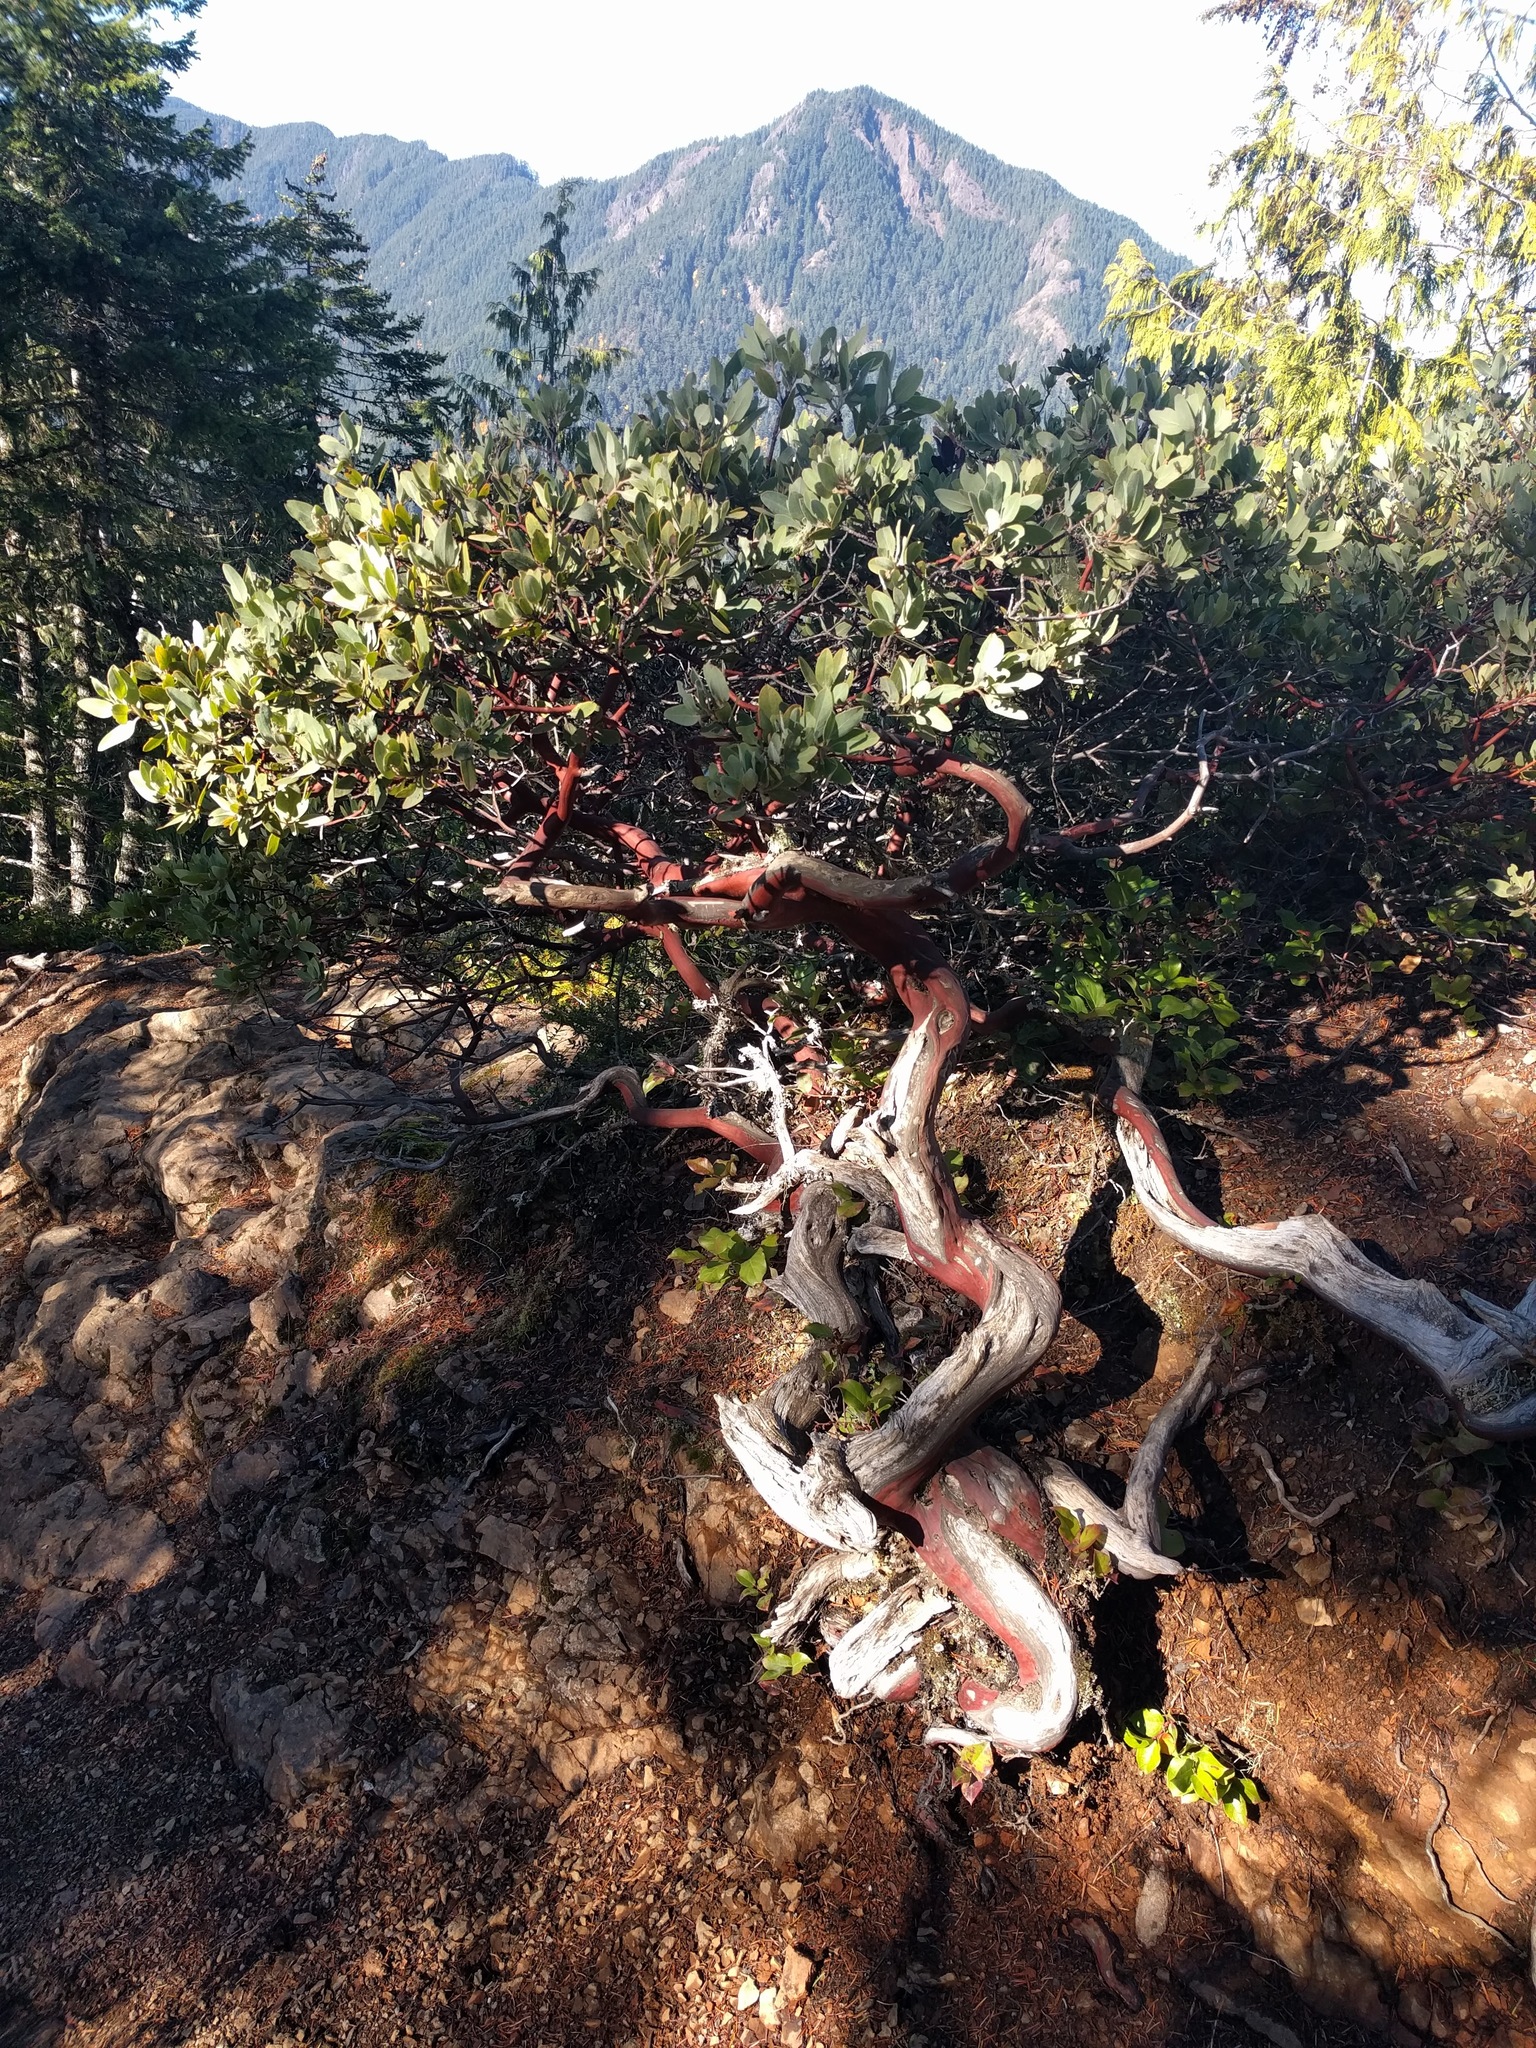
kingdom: Plantae
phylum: Tracheophyta
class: Magnoliopsida
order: Ericales
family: Ericaceae
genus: Arctostaphylos
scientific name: Arctostaphylos columbiana
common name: Bristly bearberry
